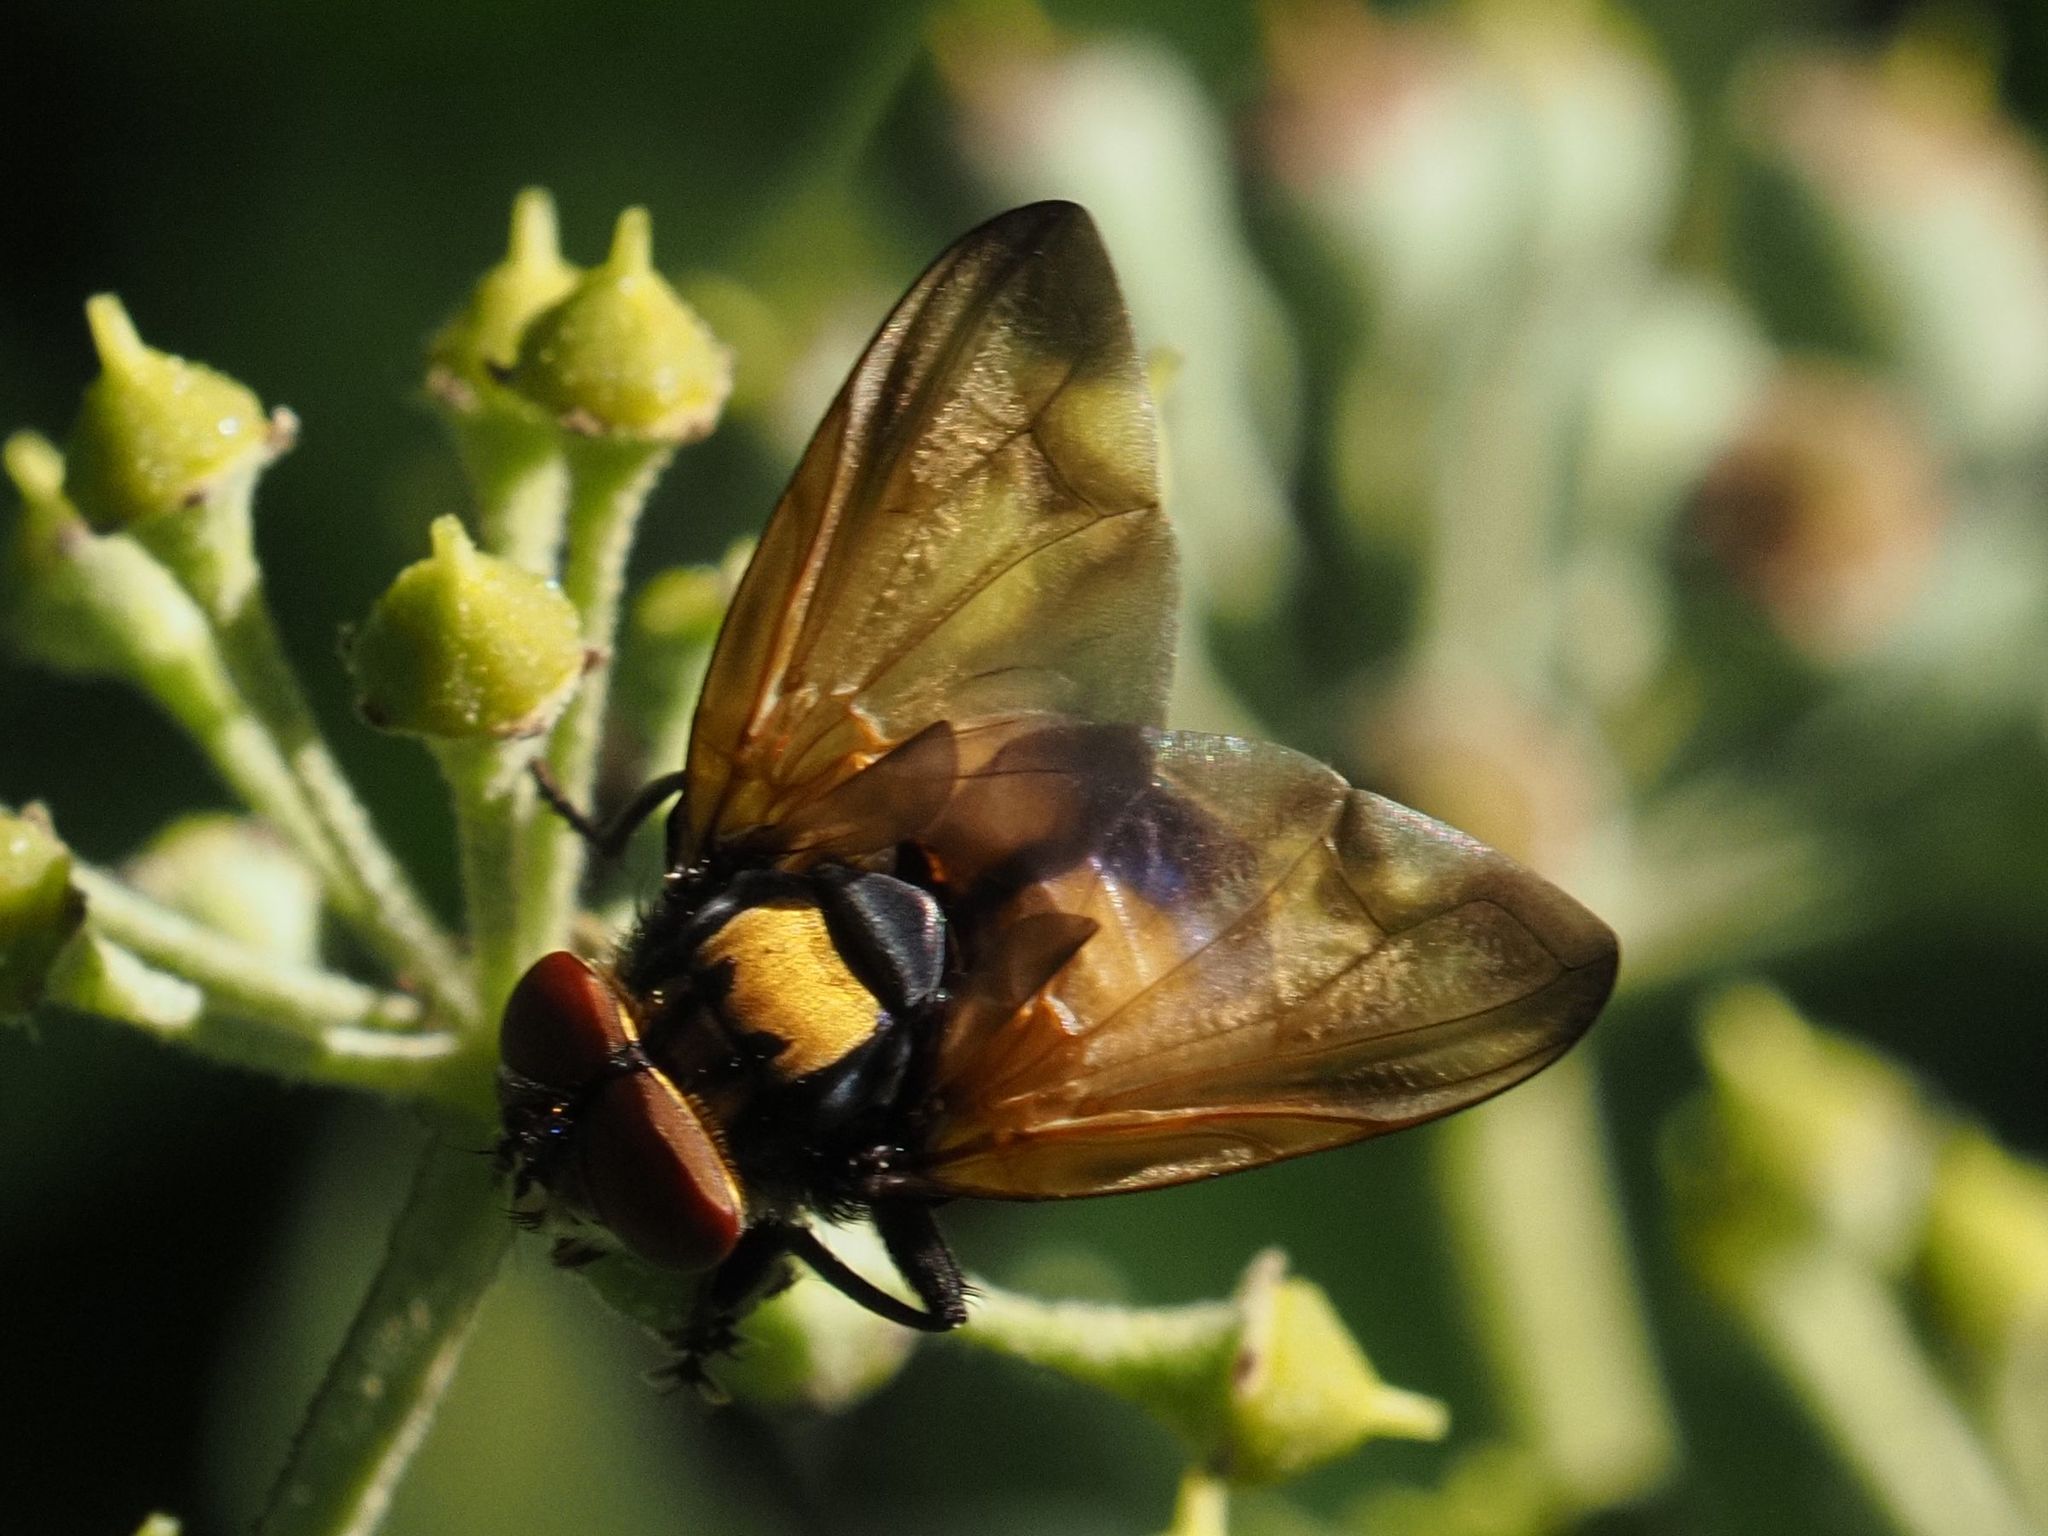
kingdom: Animalia
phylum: Arthropoda
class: Insecta
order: Diptera
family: Tachinidae
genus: Phasia
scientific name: Phasia aurigera
